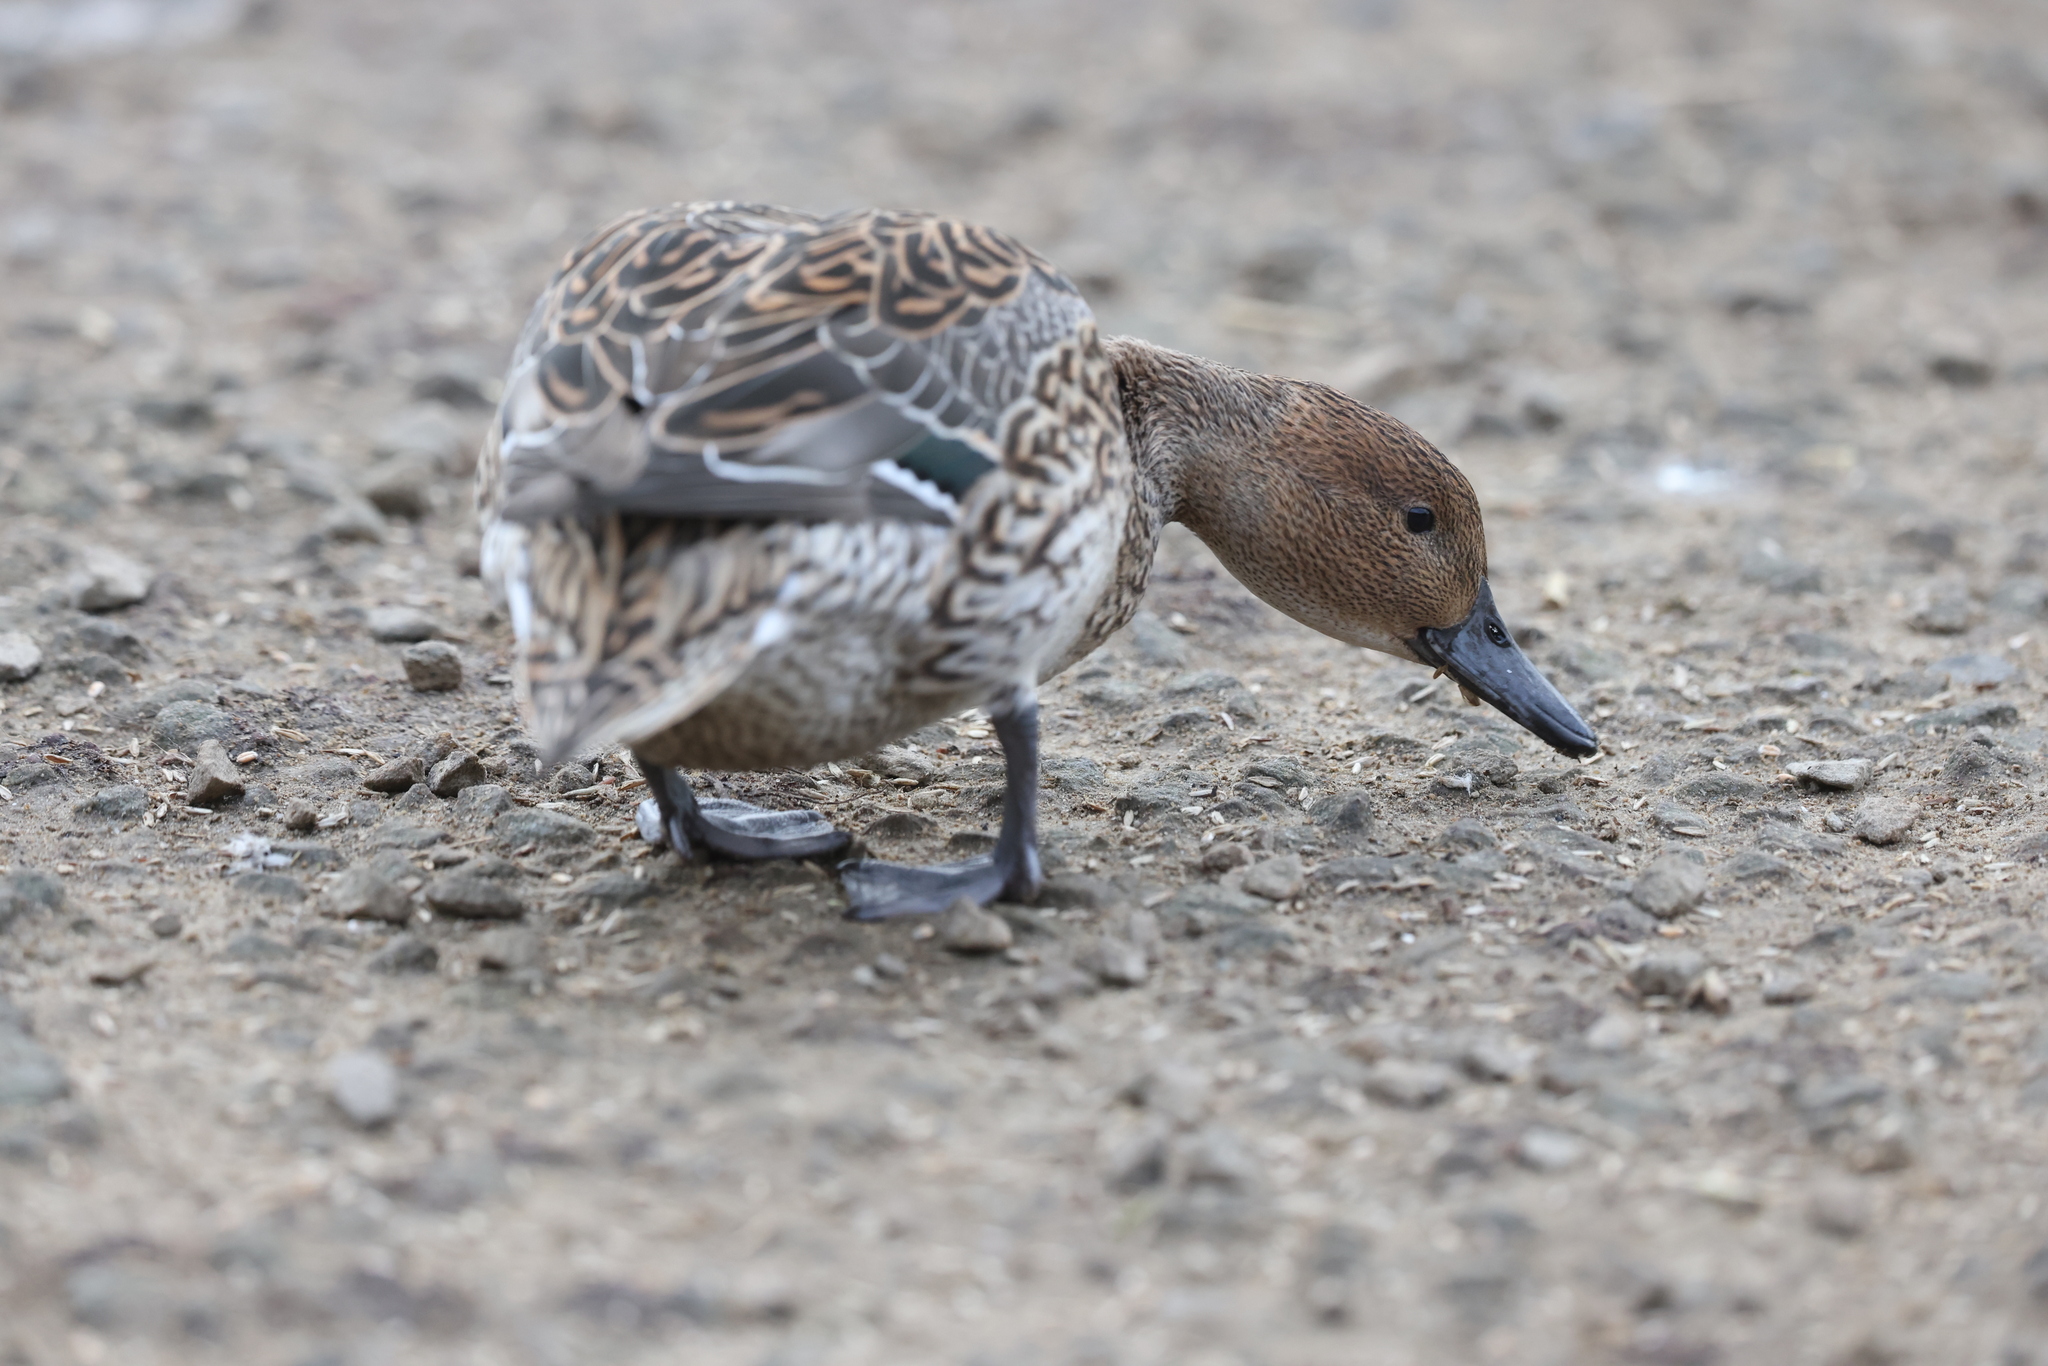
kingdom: Animalia
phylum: Chordata
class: Aves
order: Anseriformes
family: Anatidae
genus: Anas
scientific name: Anas acuta
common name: Northern pintail
